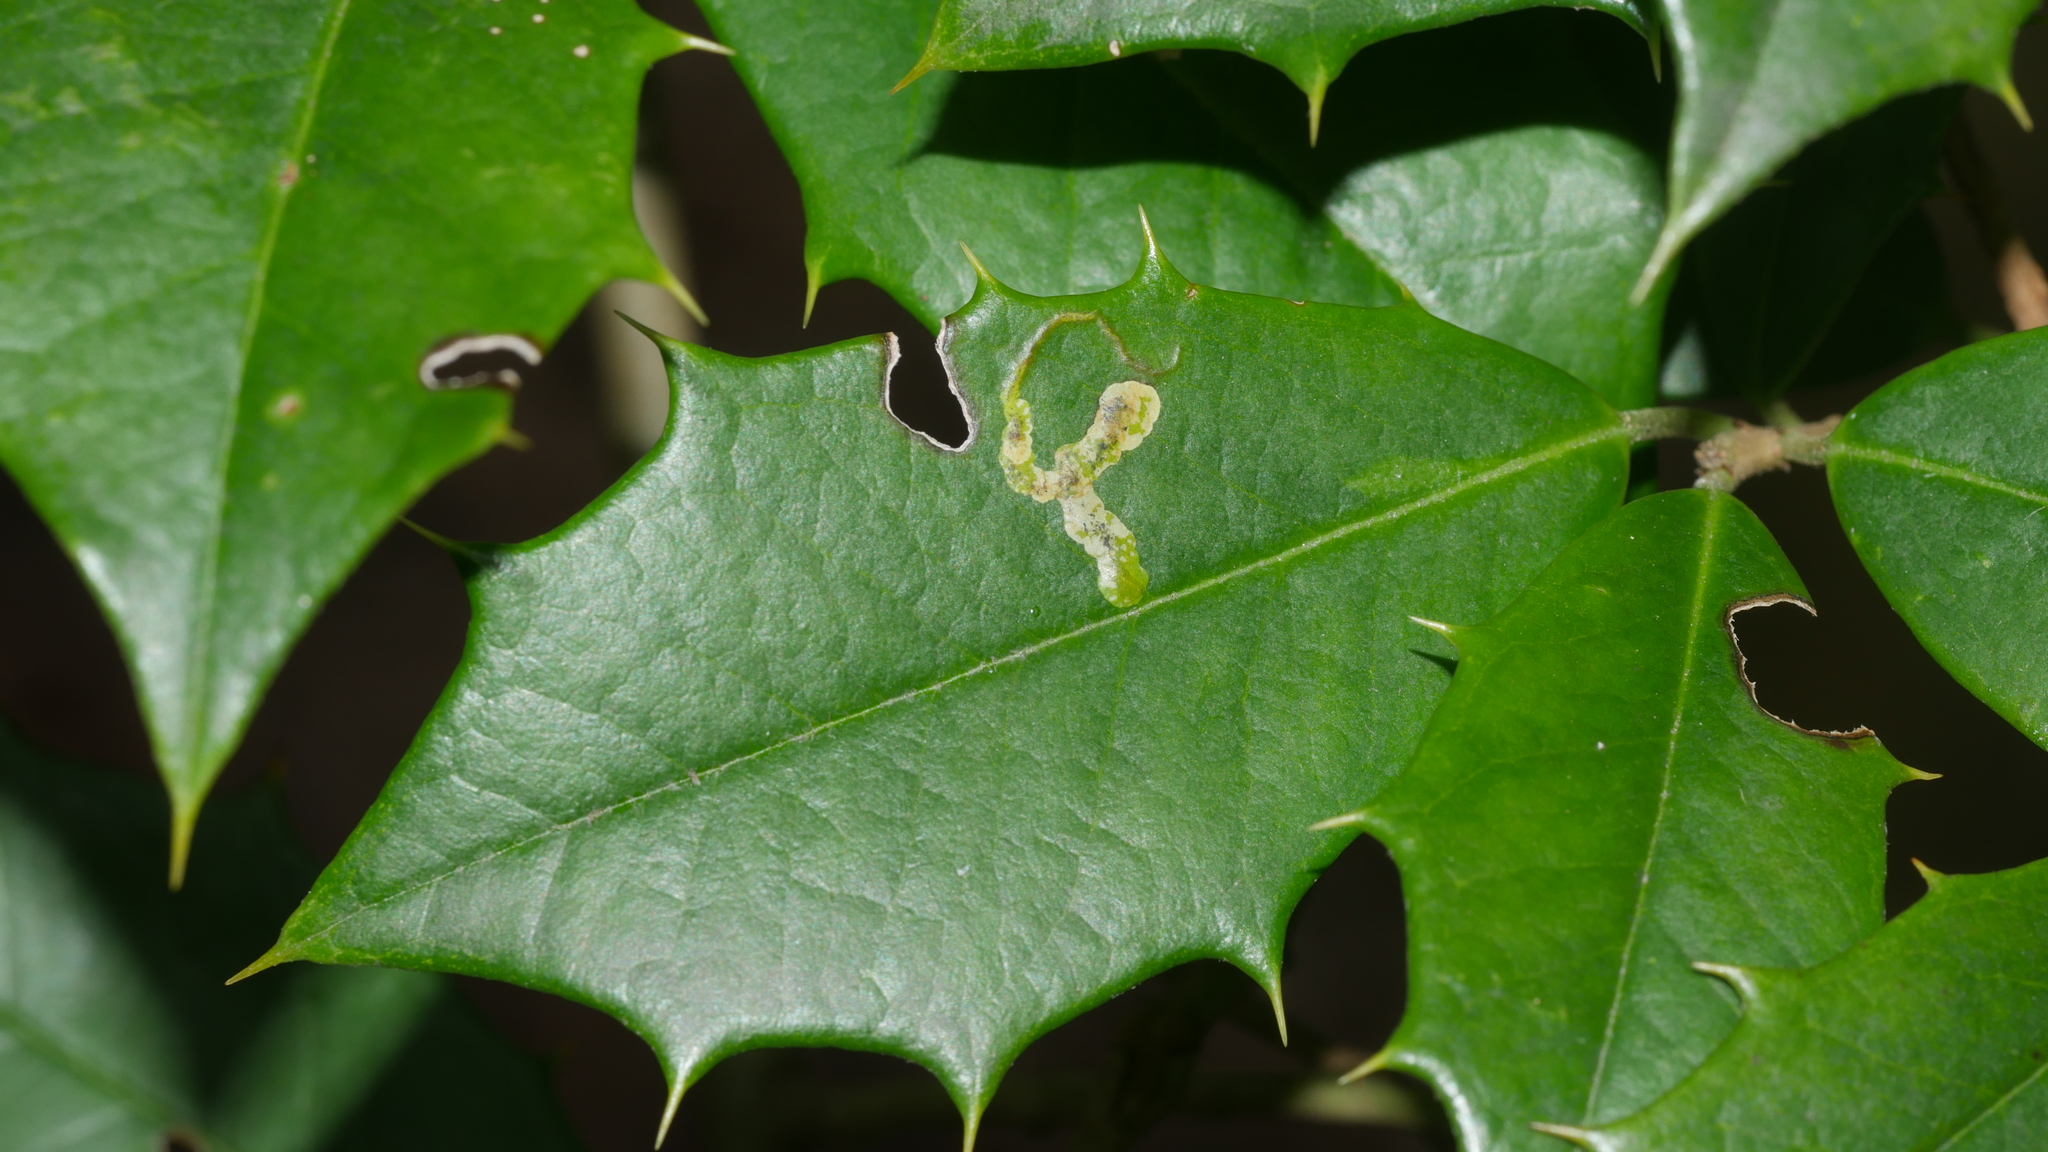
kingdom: Animalia
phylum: Arthropoda
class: Insecta
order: Diptera
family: Agromyzidae
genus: Phytomyza
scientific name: Phytomyza ilicicola
